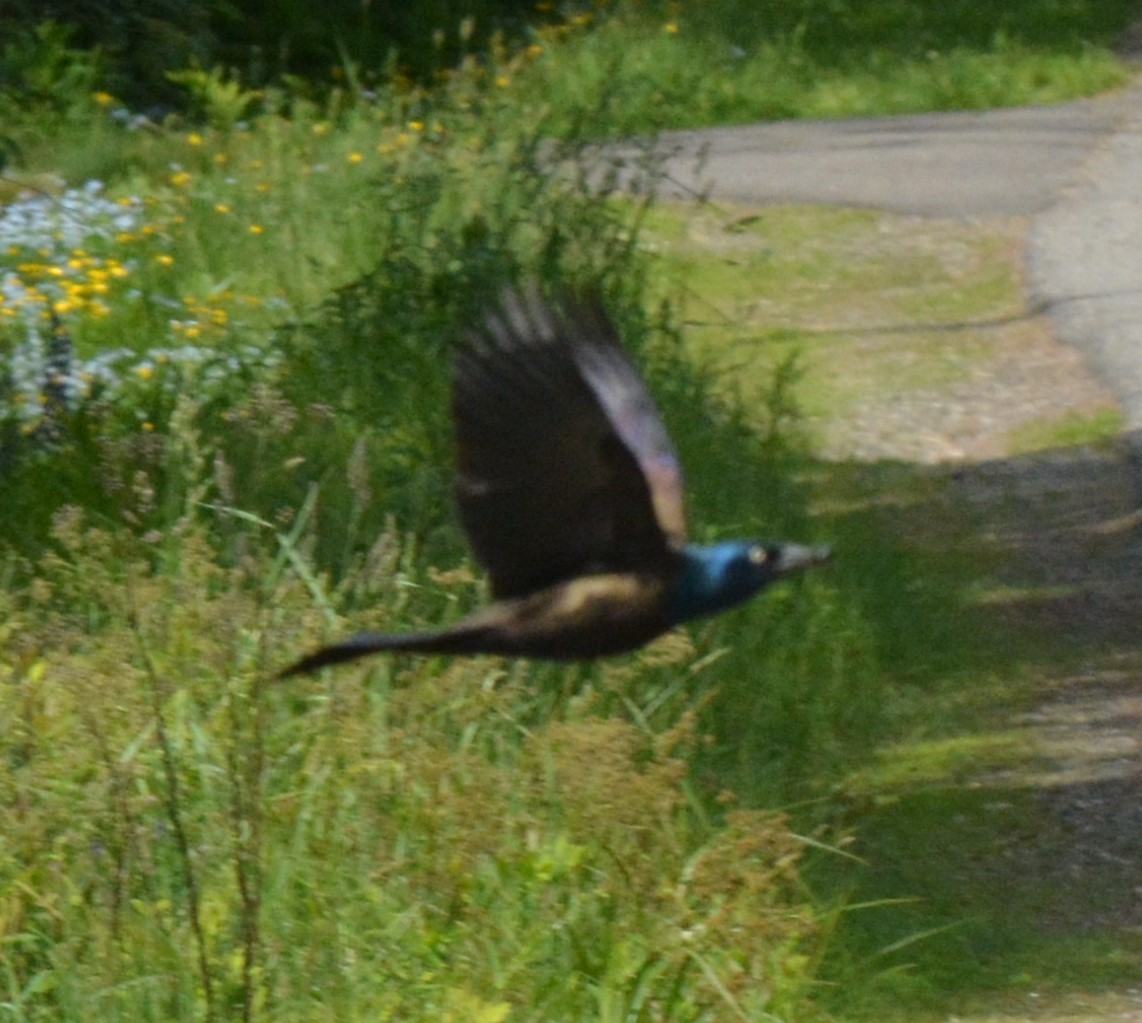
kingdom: Animalia
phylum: Chordata
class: Aves
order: Passeriformes
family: Icteridae
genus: Quiscalus
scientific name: Quiscalus quiscula
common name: Common grackle
